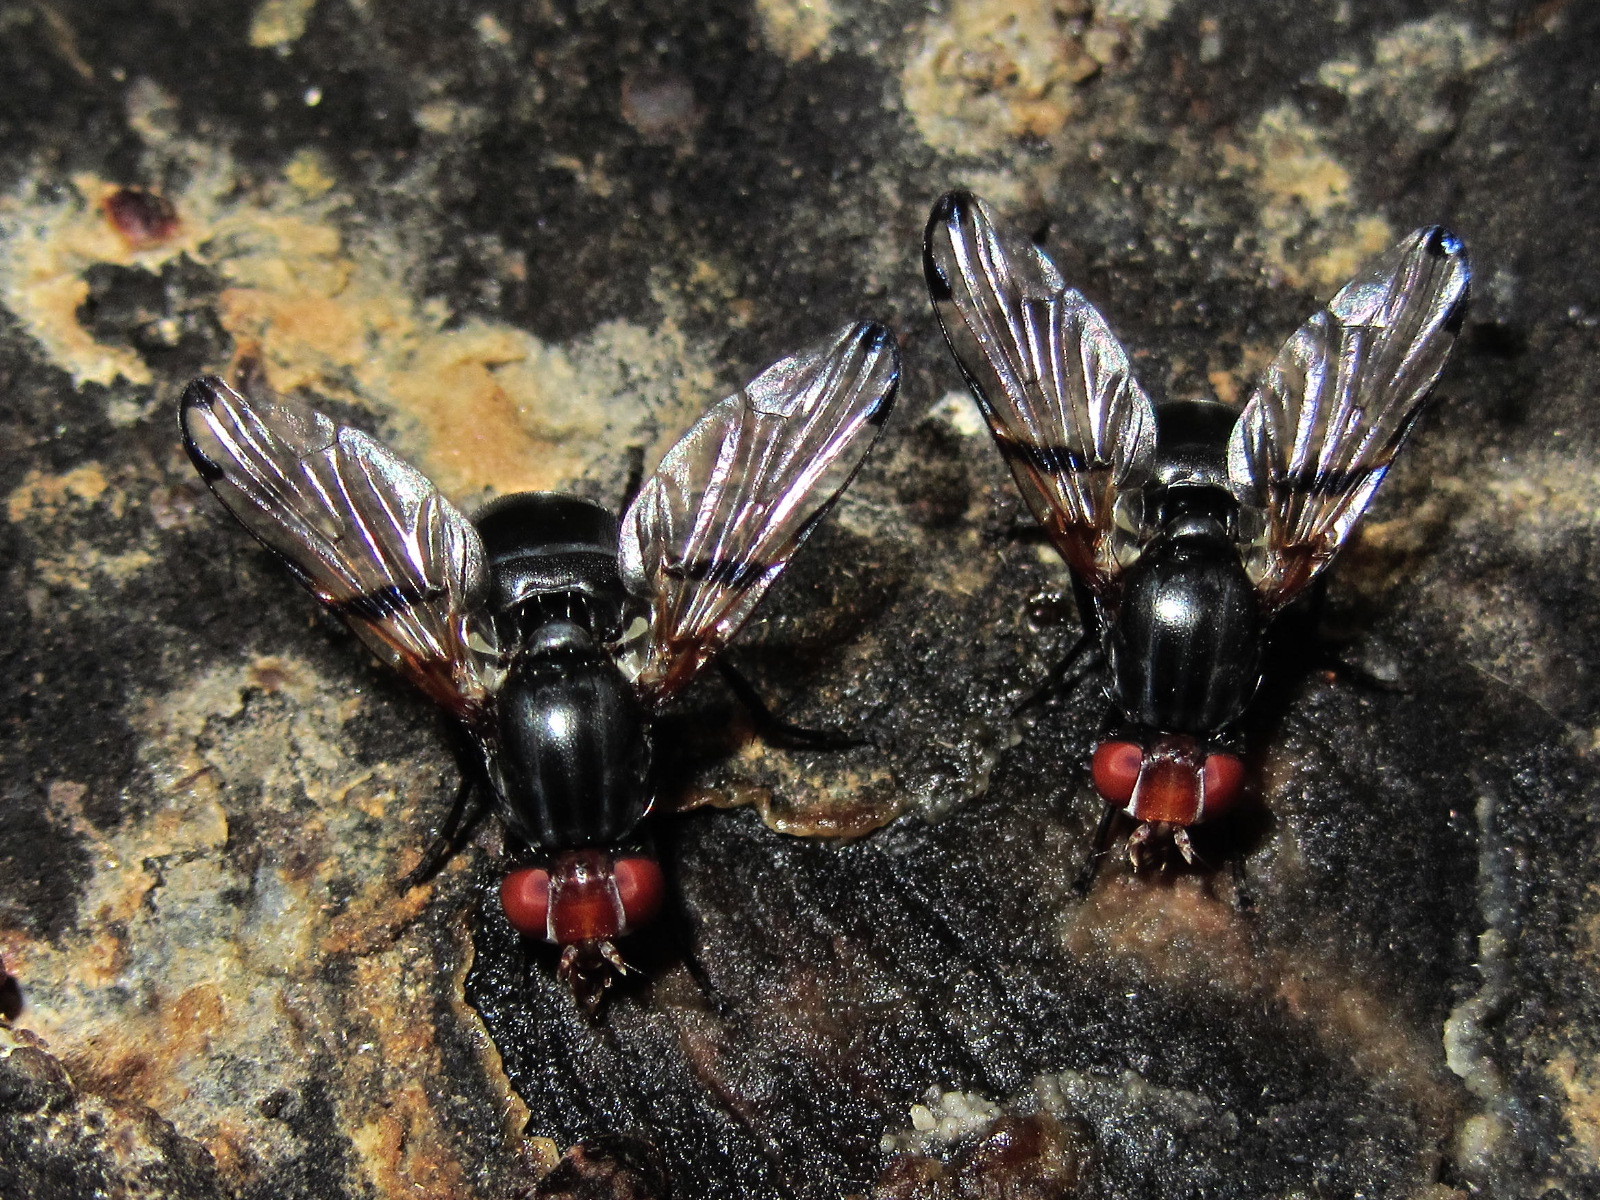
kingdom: Animalia
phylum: Arthropoda
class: Insecta
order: Diptera
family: Ulidiidae
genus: Ceroxys
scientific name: Ceroxys munda
